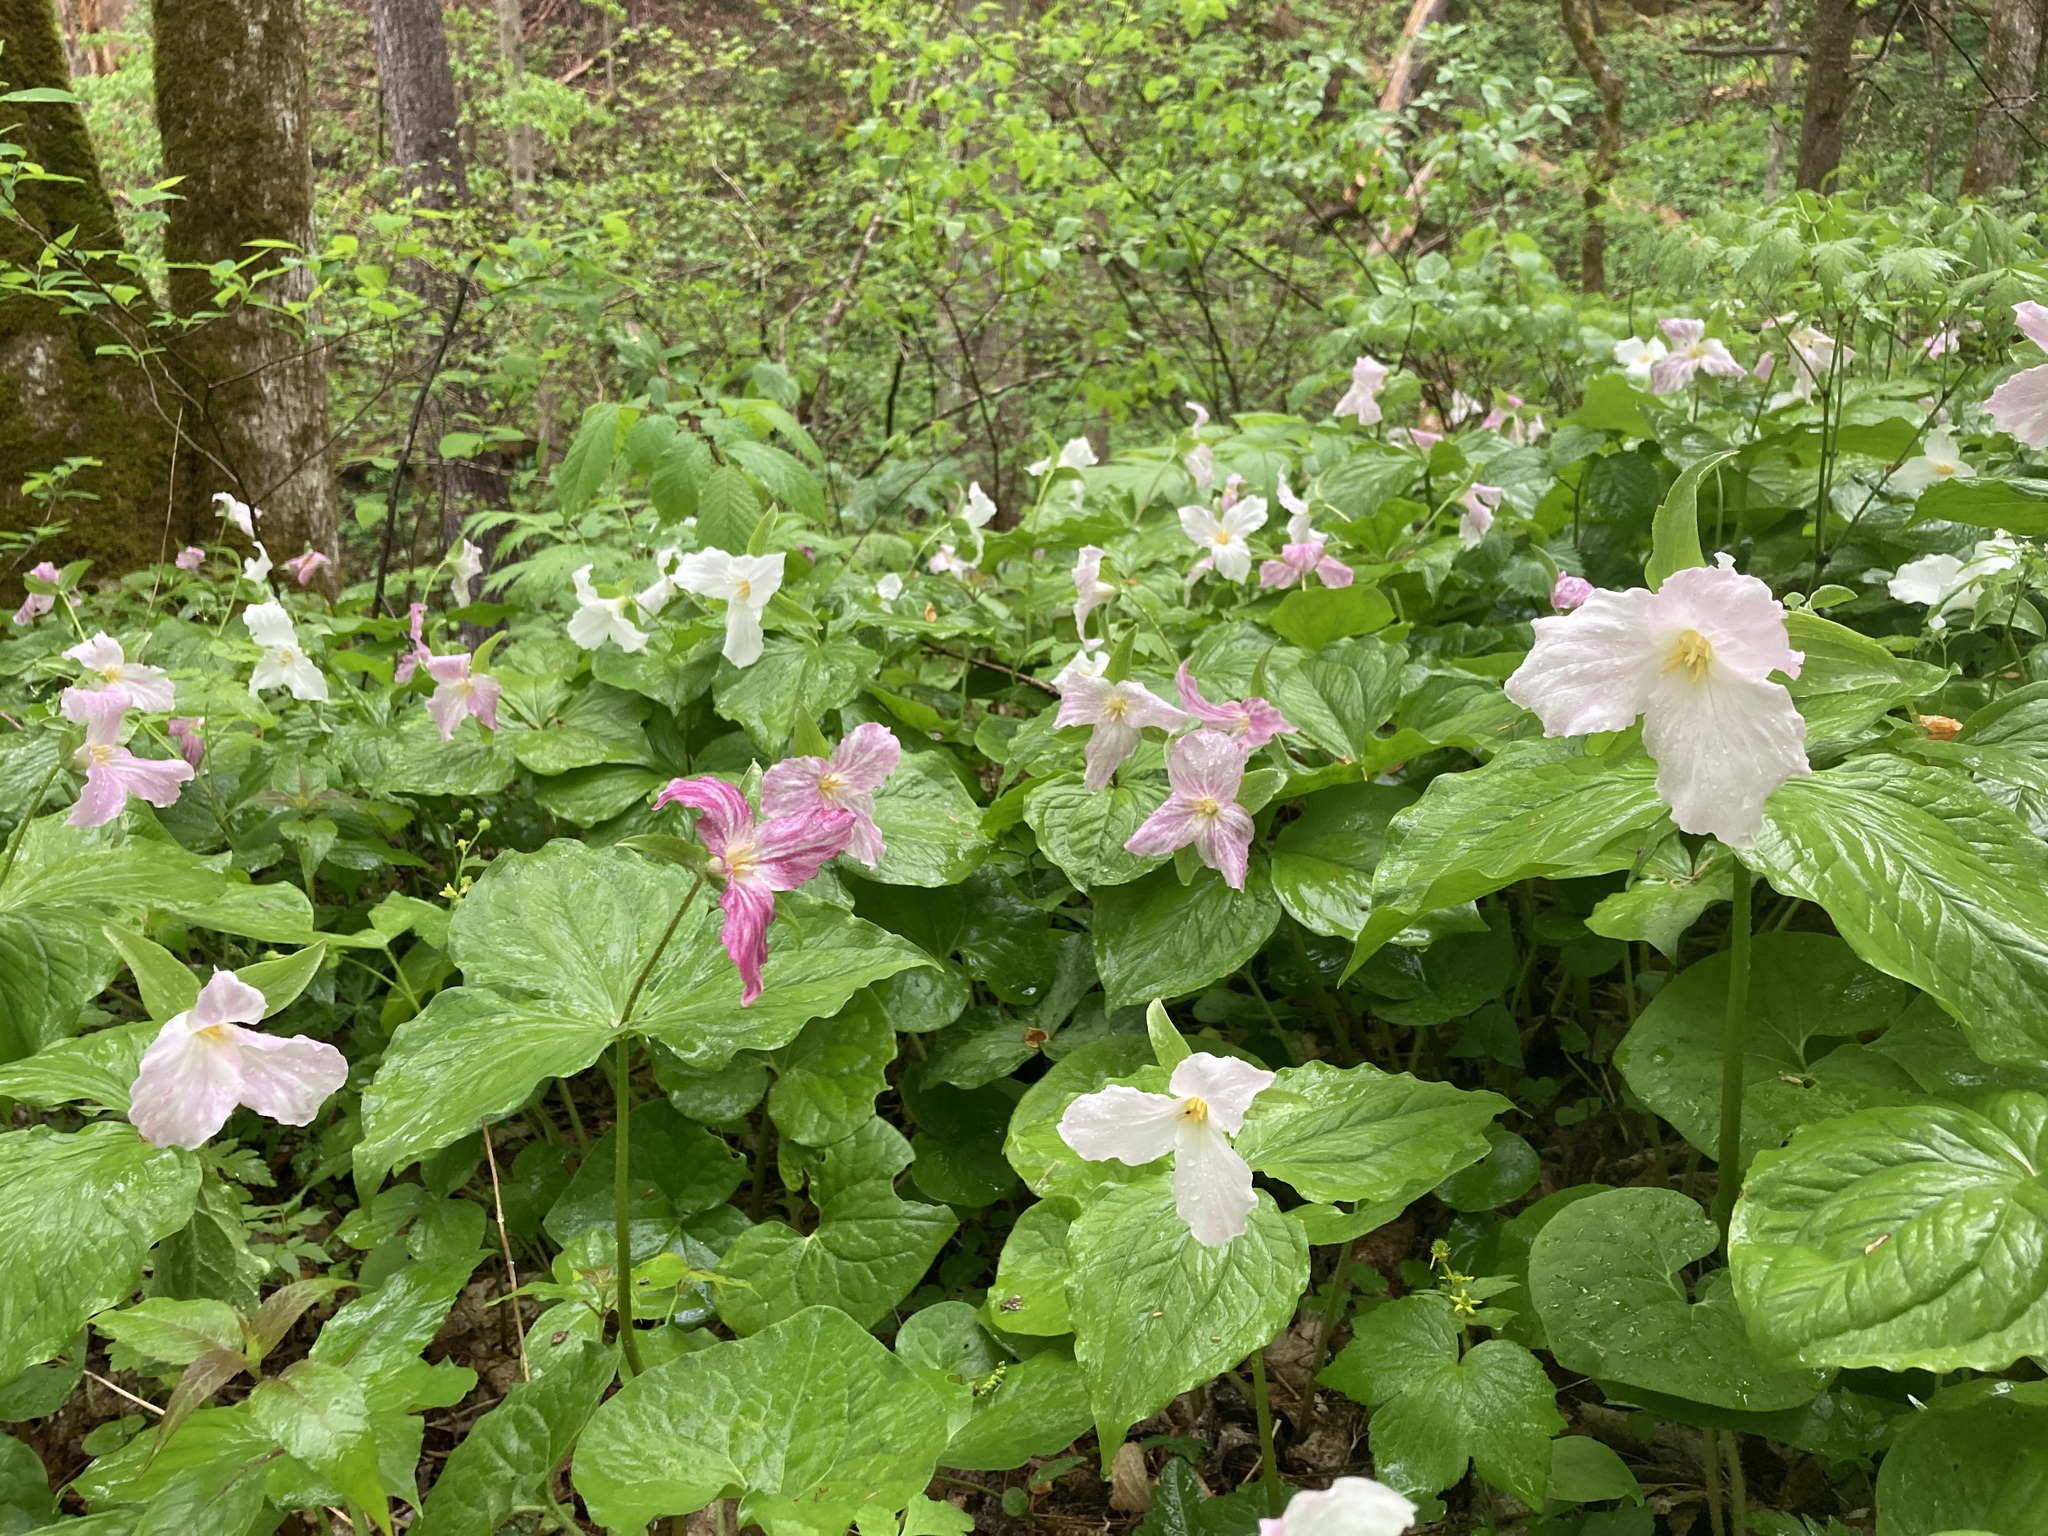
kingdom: Plantae
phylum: Tracheophyta
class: Liliopsida
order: Liliales
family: Melanthiaceae
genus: Trillium
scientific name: Trillium grandiflorum
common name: Great white trillium
